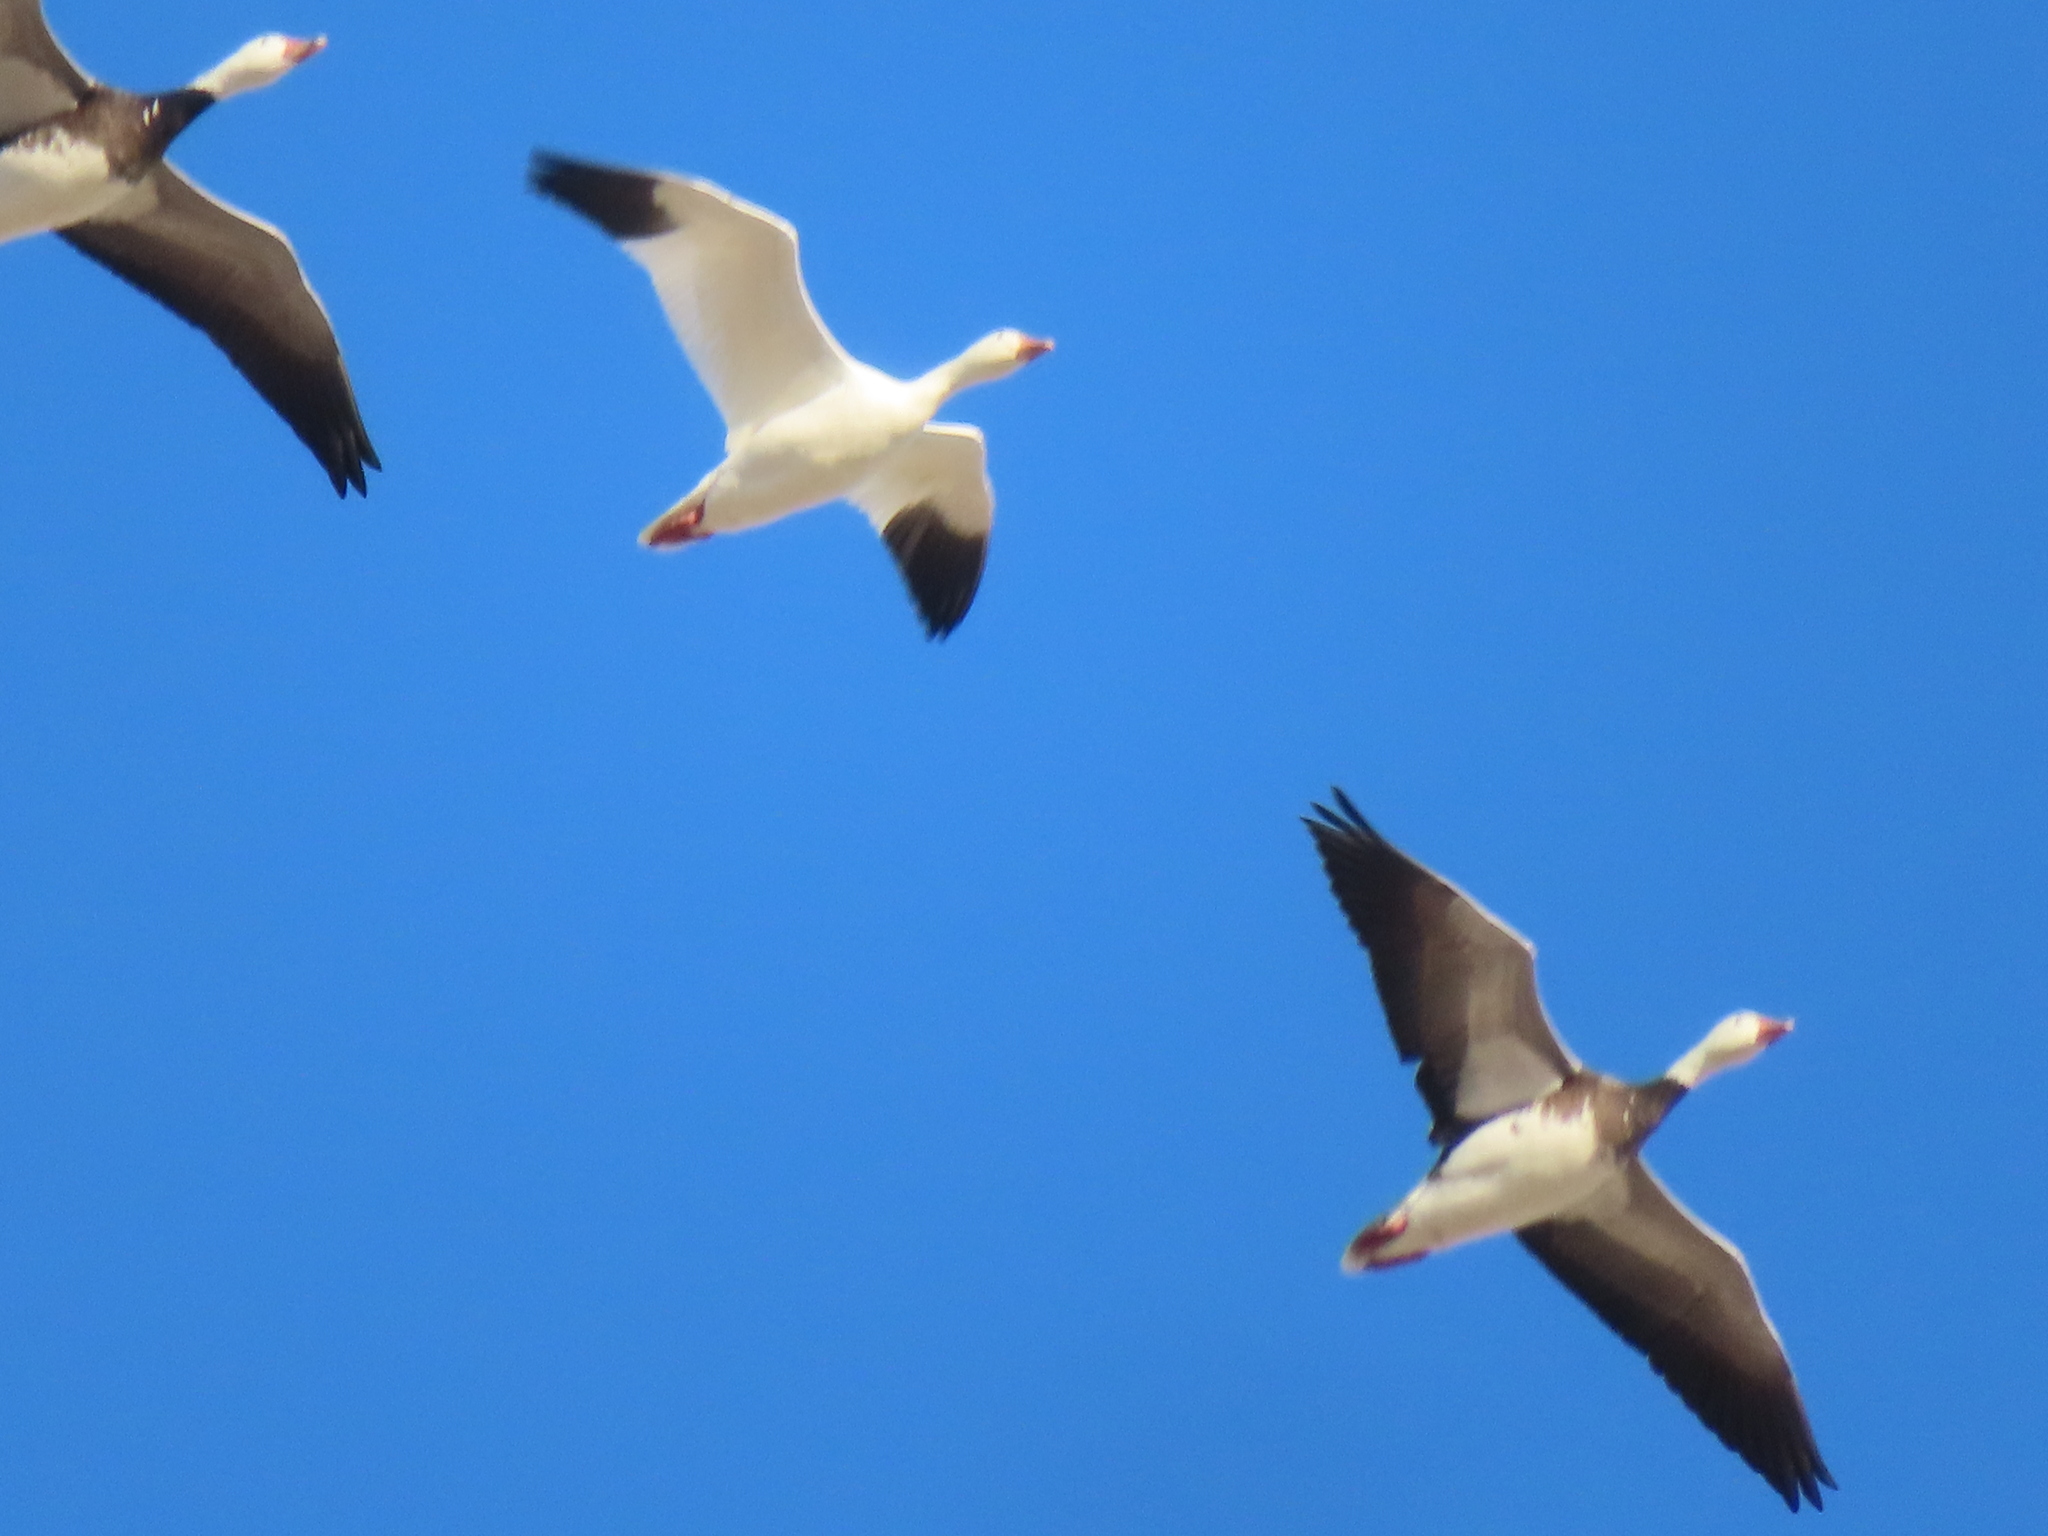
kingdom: Animalia
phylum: Chordata
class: Aves
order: Anseriformes
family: Anatidae
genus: Anser
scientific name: Anser caerulescens
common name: Snow goose
